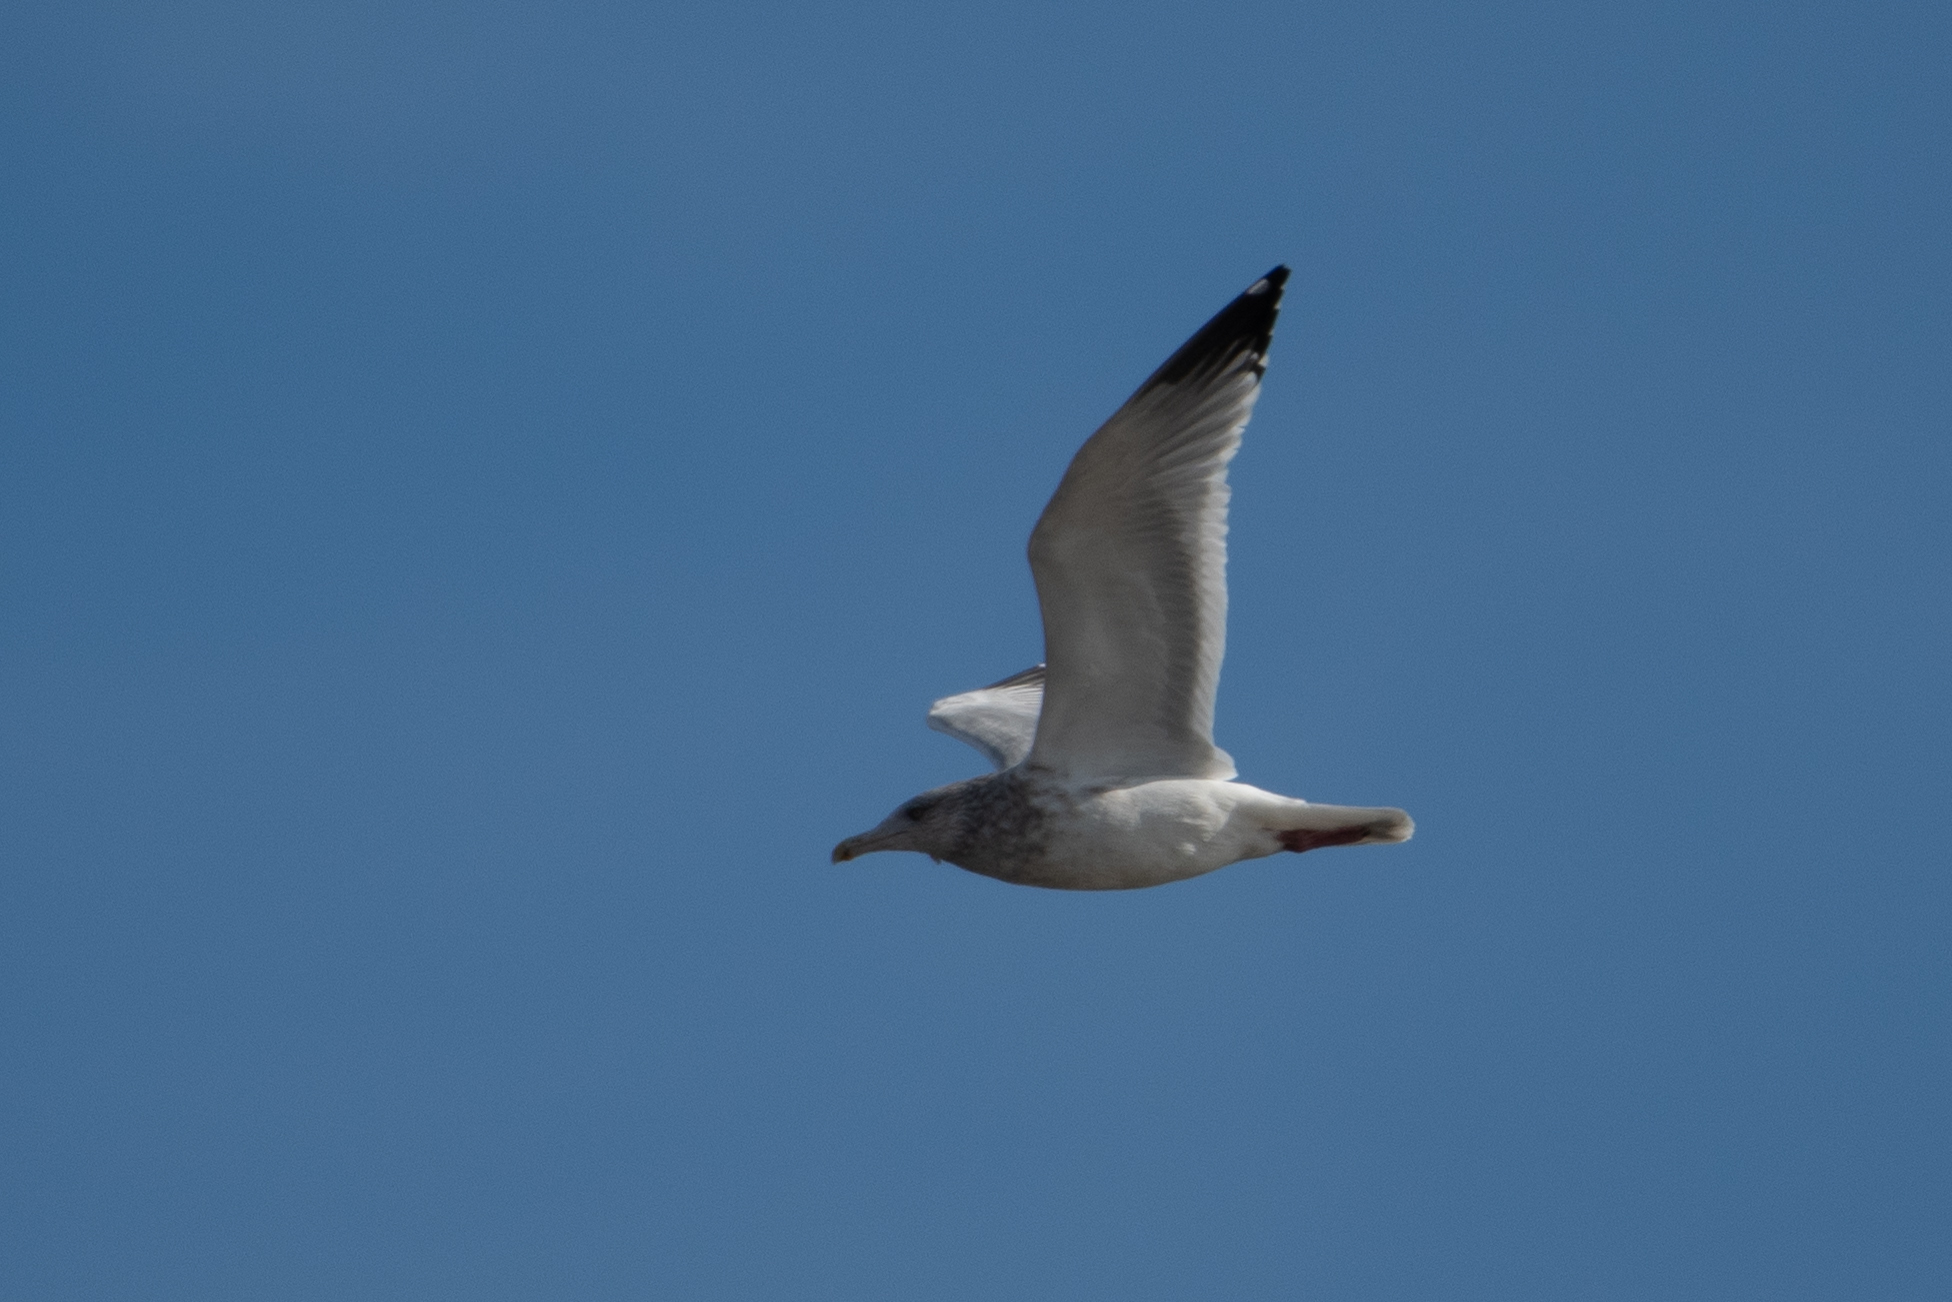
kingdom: Animalia
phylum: Chordata
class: Aves
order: Charadriiformes
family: Laridae
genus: Larus
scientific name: Larus argentatus
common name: Herring gull
